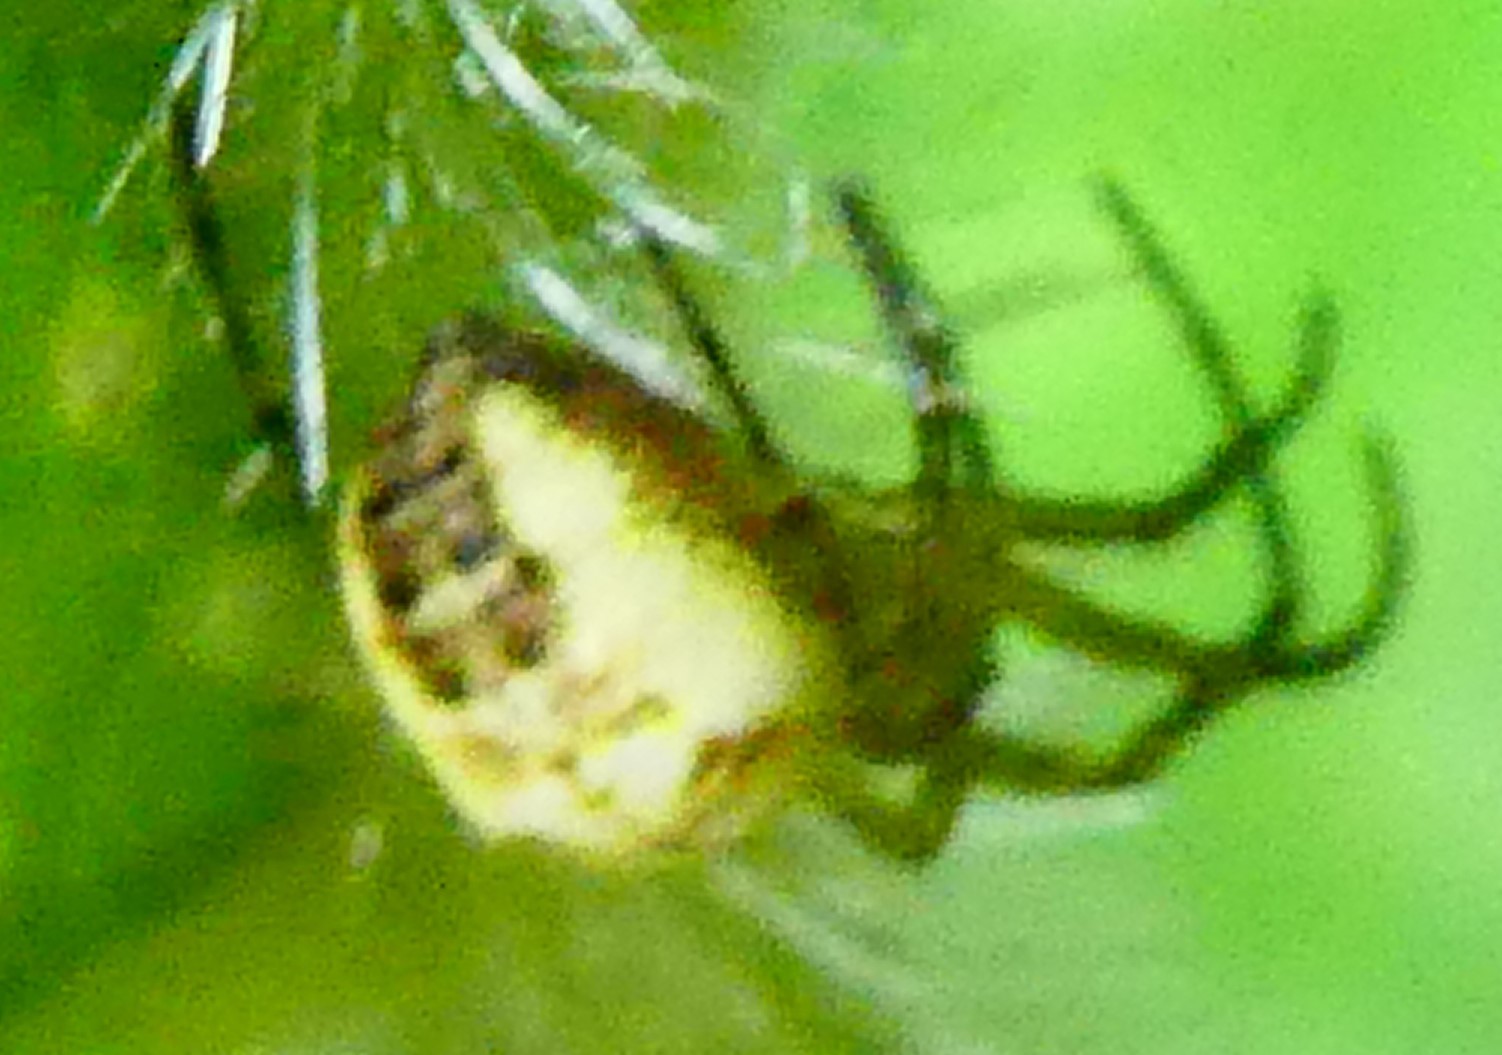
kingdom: Animalia
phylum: Arthropoda
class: Arachnida
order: Araneae
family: Araneidae
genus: Mangora
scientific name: Mangora acalypha
